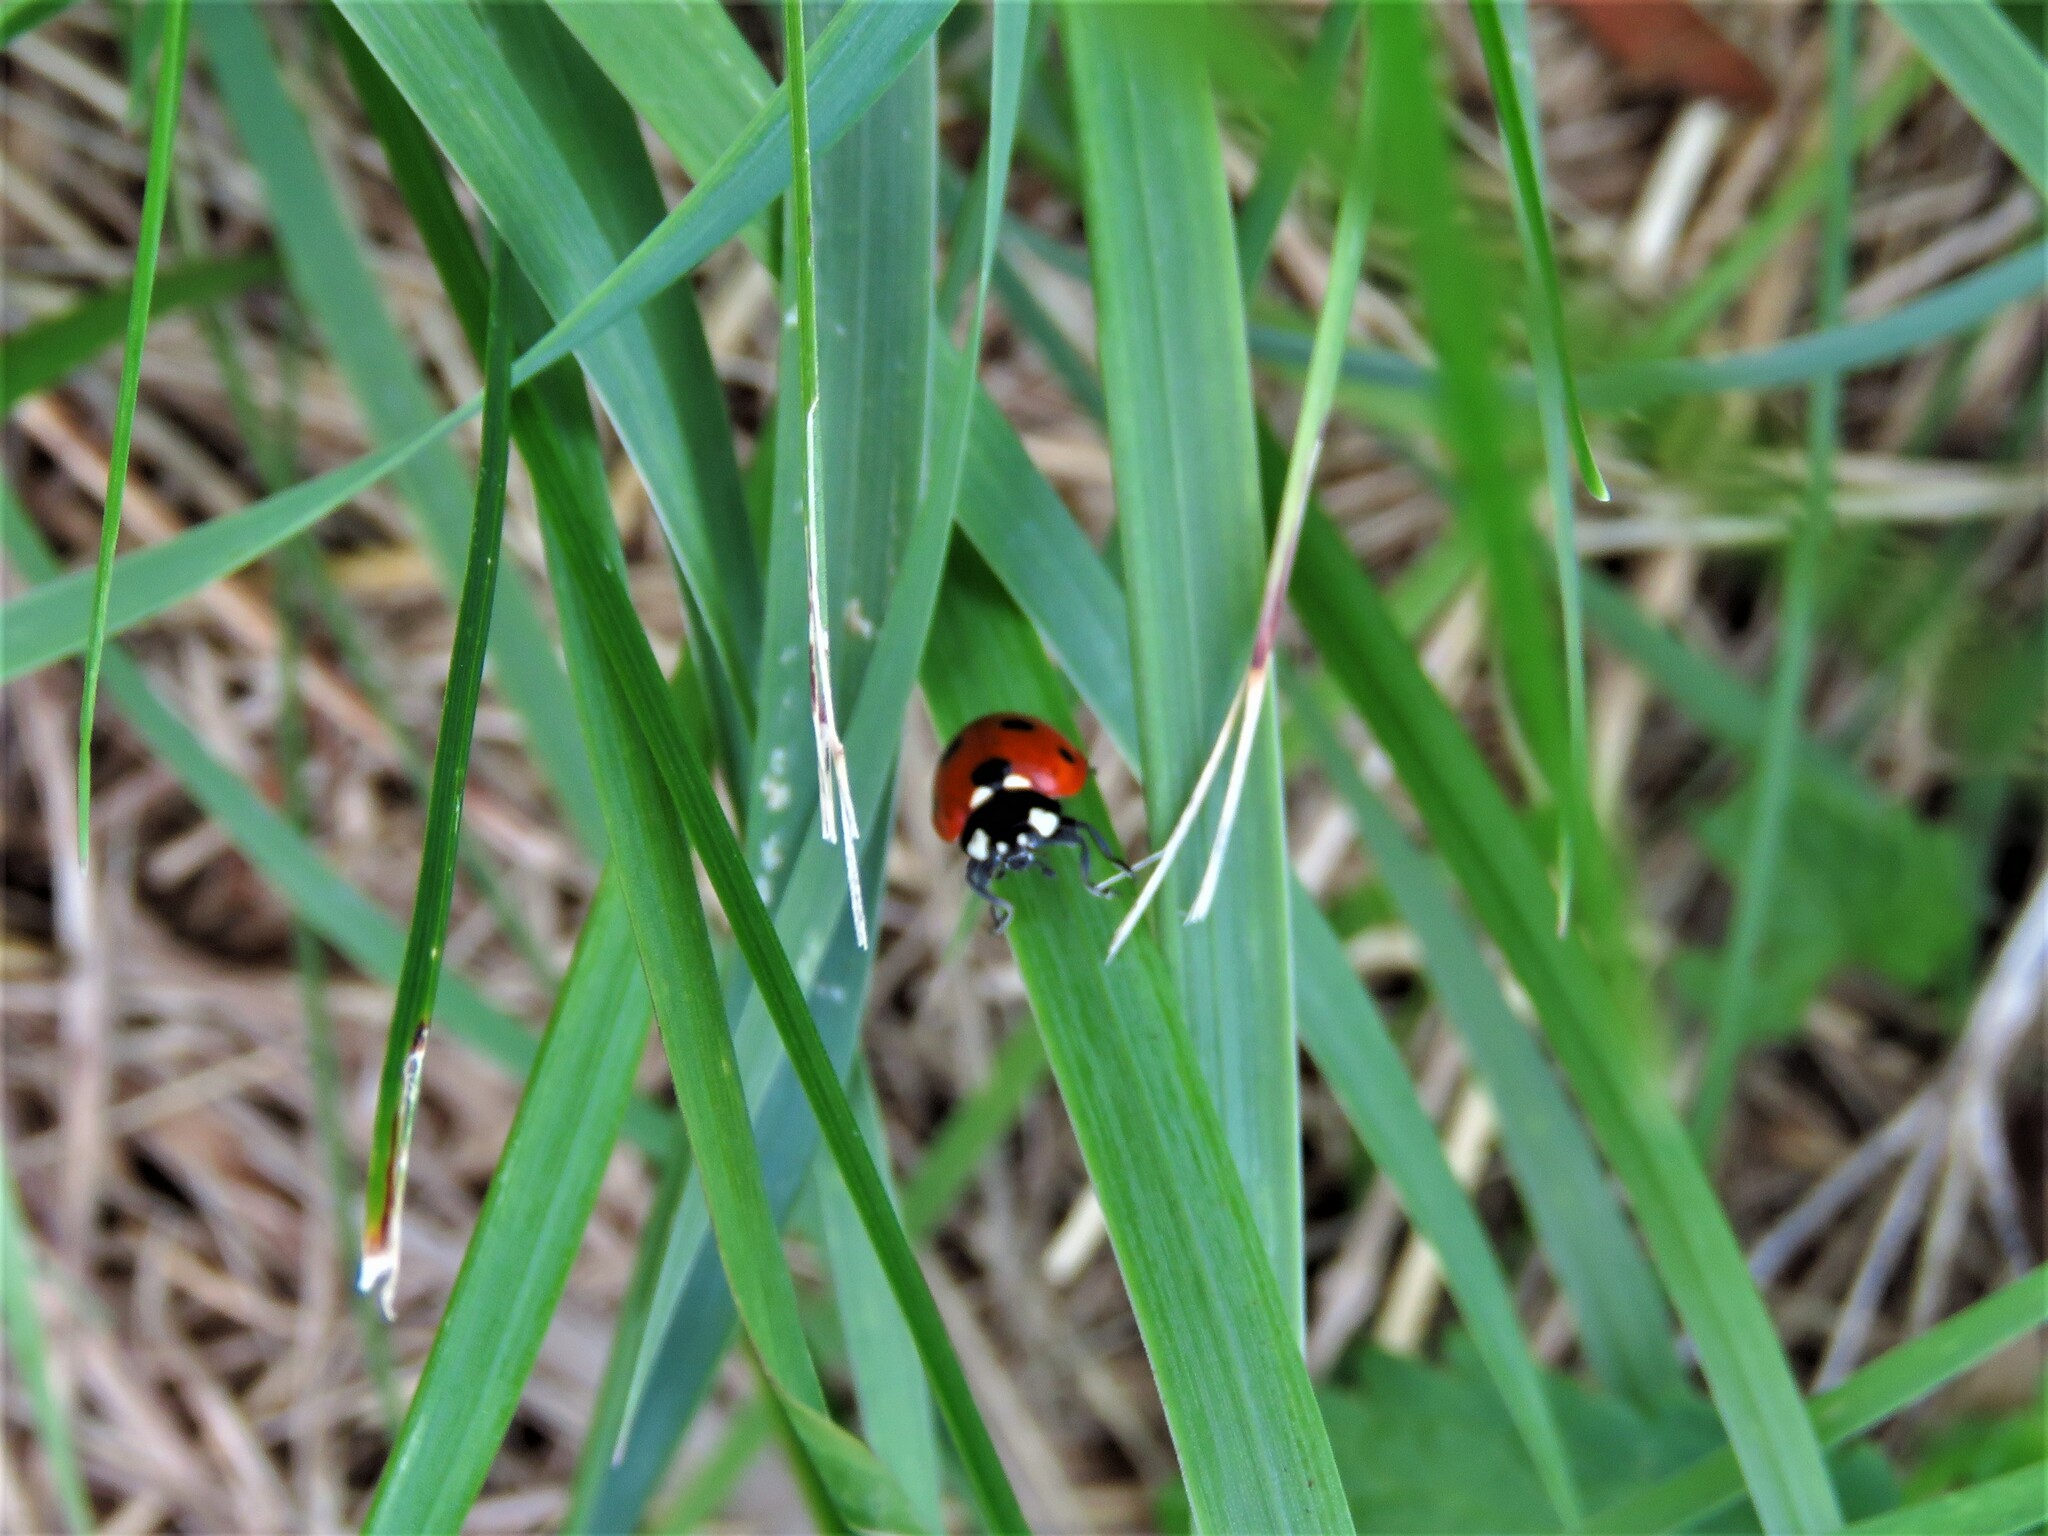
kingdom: Animalia
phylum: Arthropoda
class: Insecta
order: Coleoptera
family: Coccinellidae
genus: Coccinella
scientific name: Coccinella septempunctata
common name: Sevenspotted lady beetle
